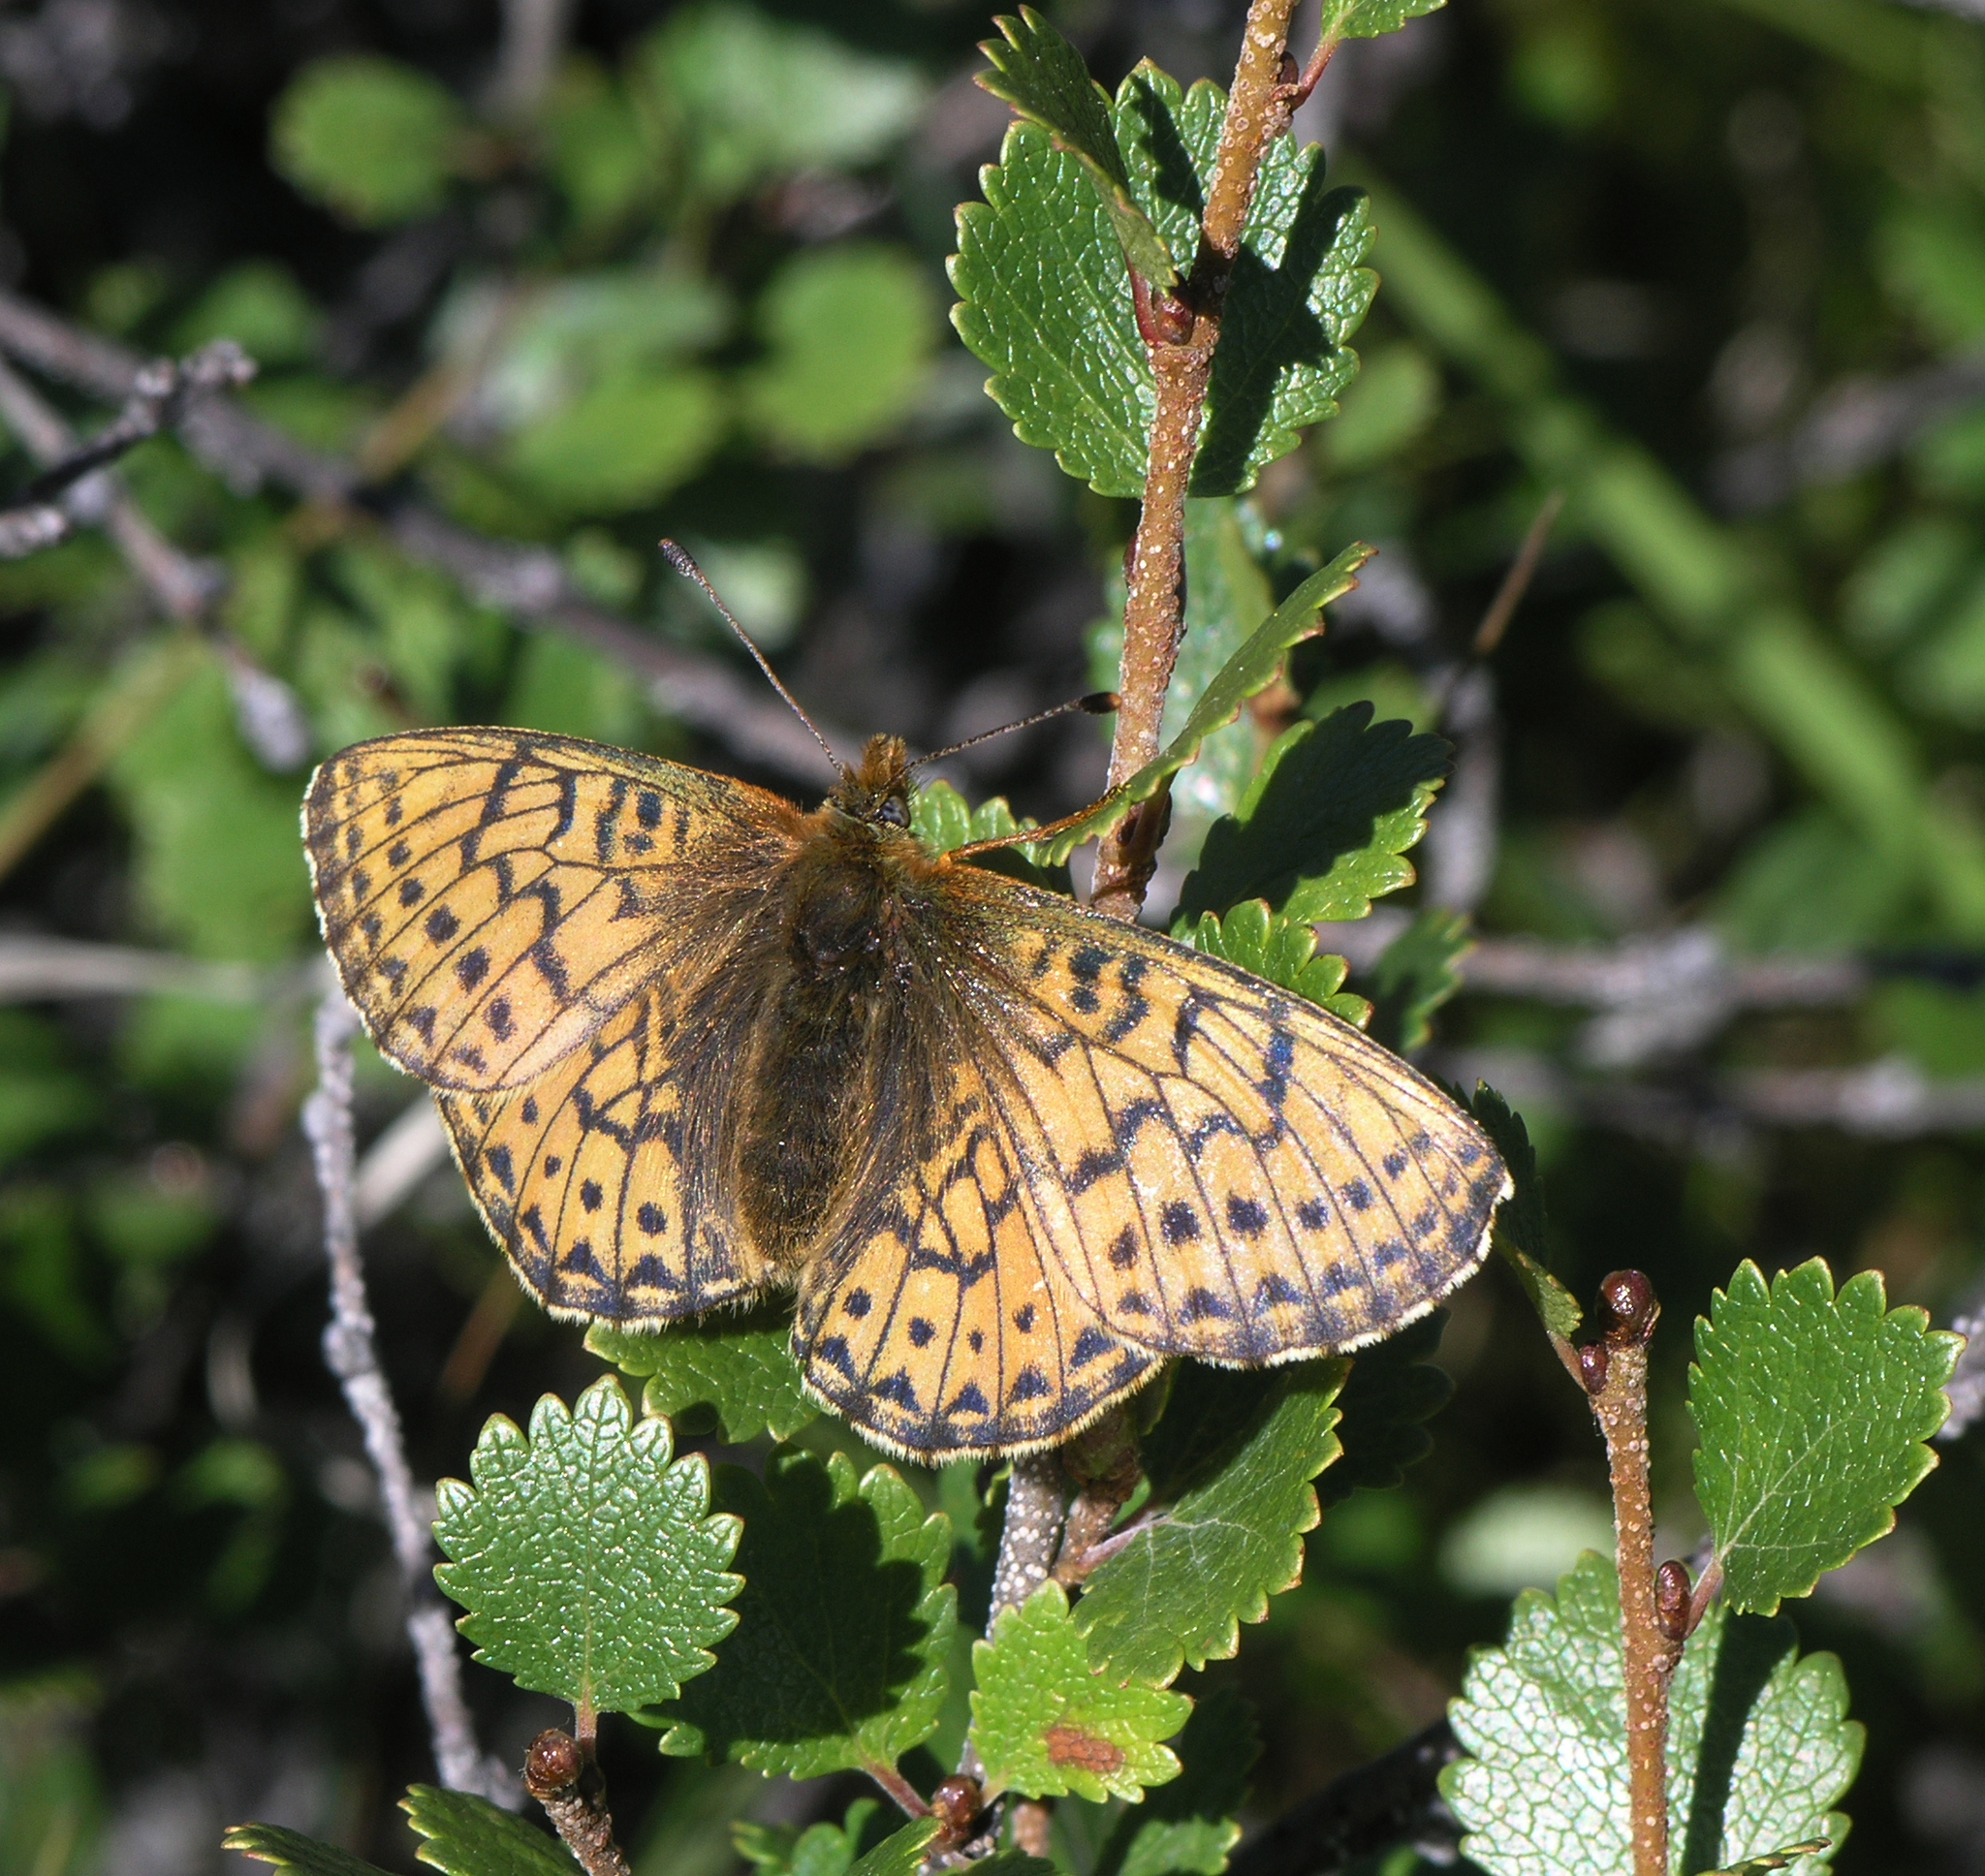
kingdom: Animalia
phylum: Arthropoda
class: Insecta
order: Lepidoptera
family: Nymphalidae
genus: Boloria
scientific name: Boloria
